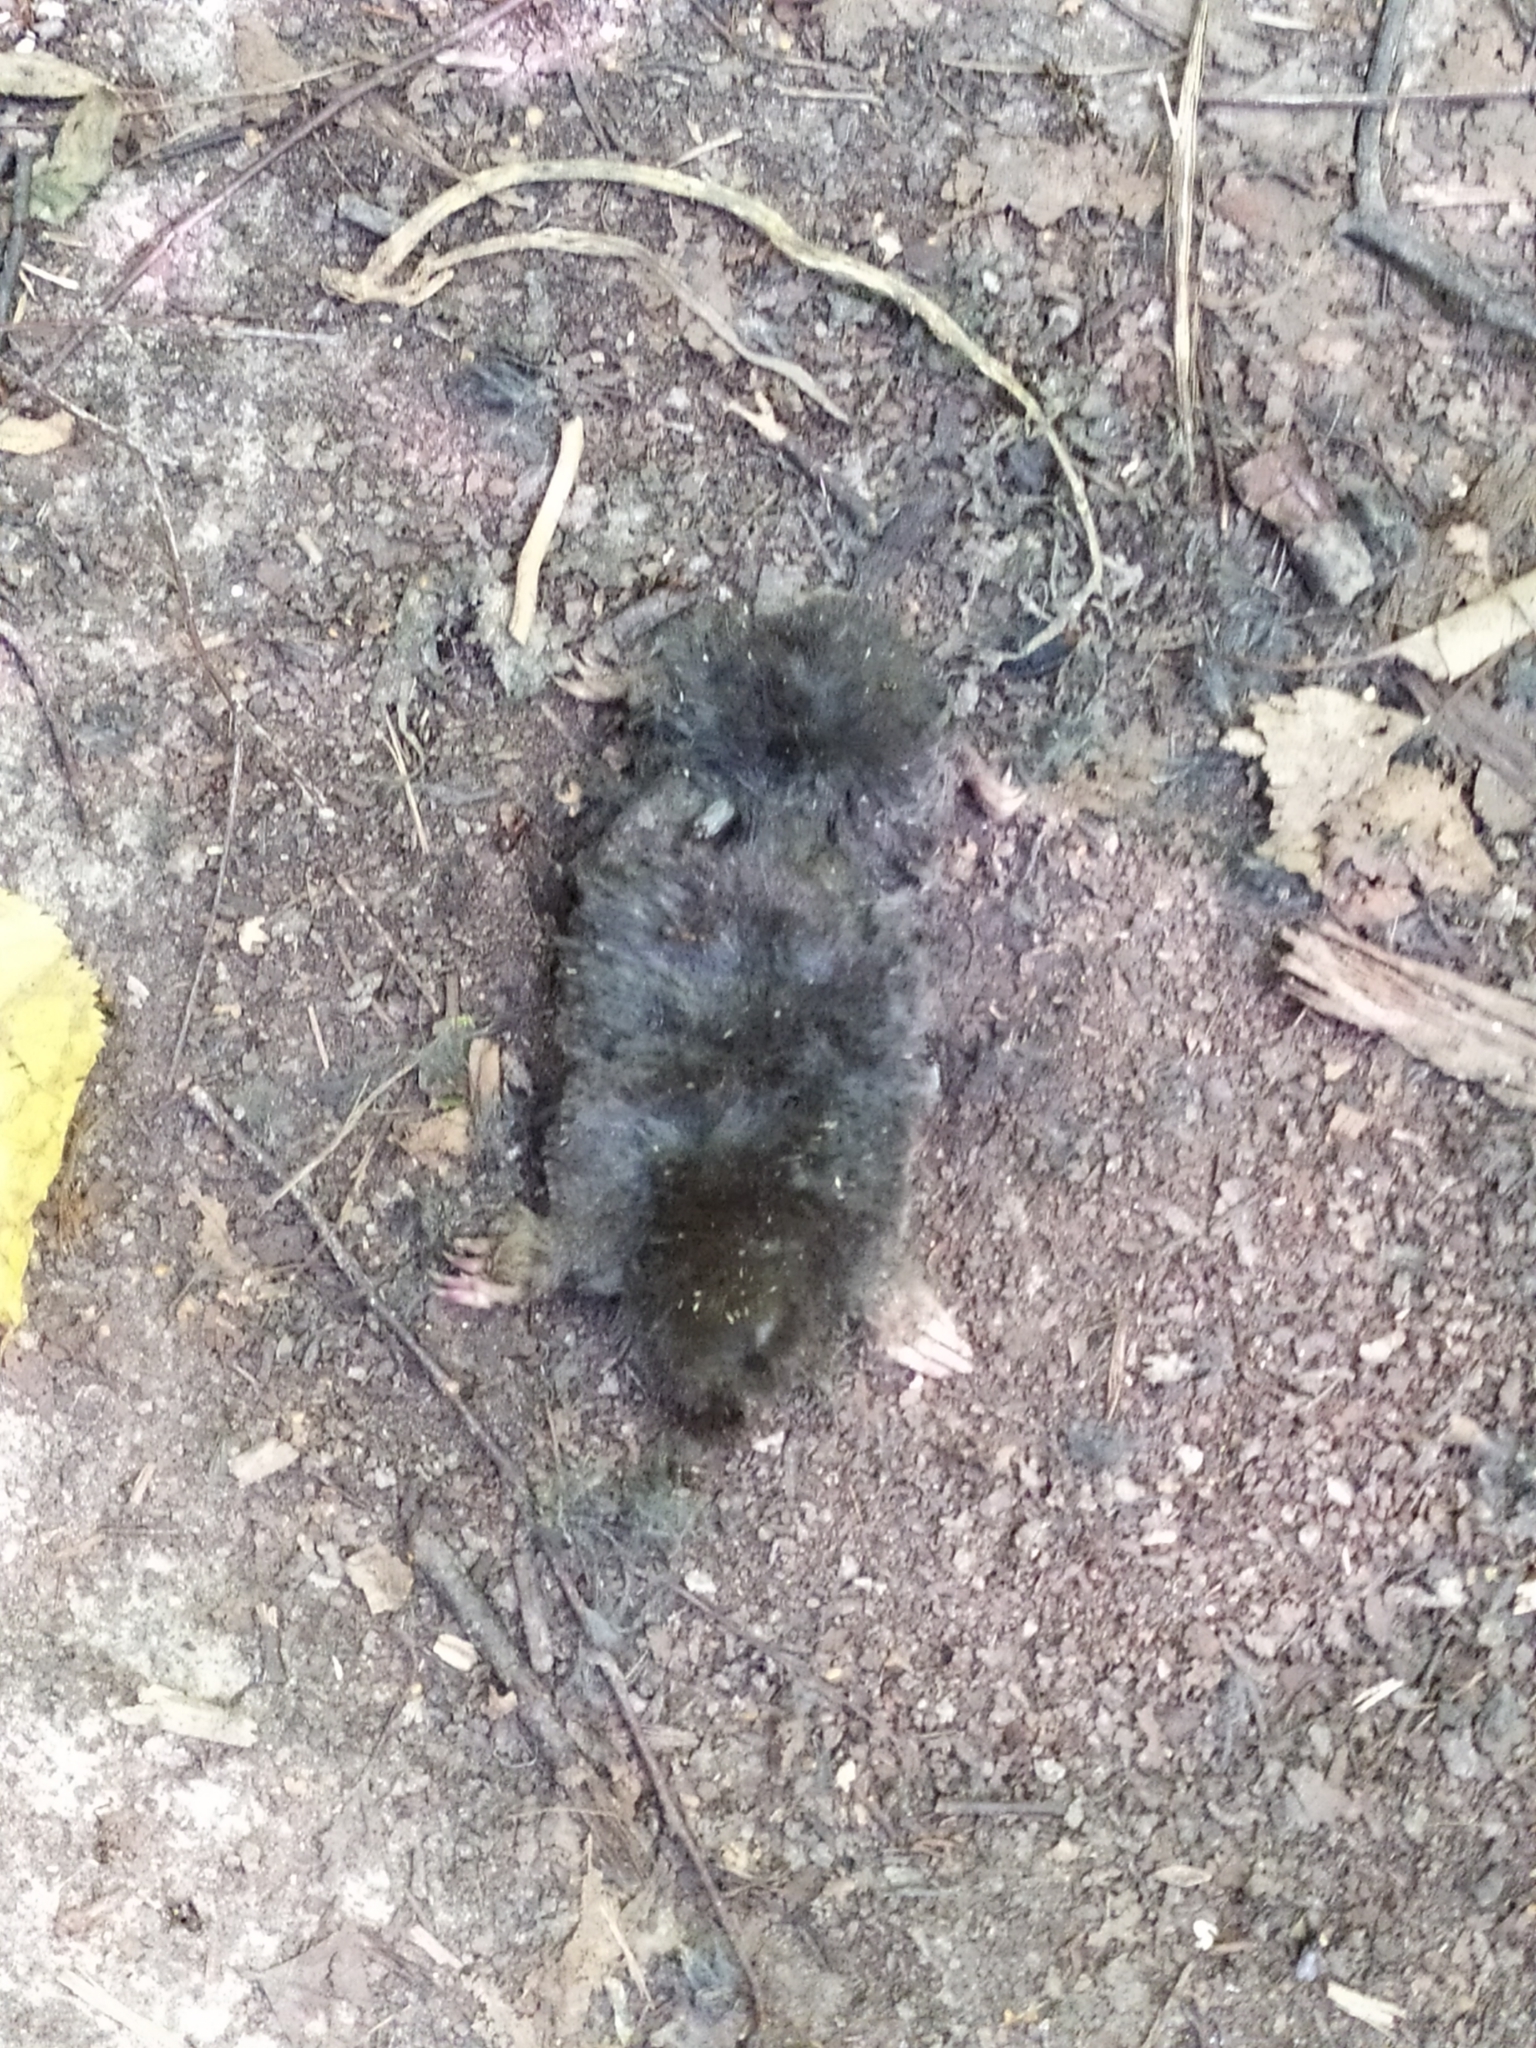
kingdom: Animalia
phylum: Chordata
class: Mammalia
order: Soricomorpha
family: Talpidae
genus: Talpa
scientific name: Talpa europaea
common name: European mole
